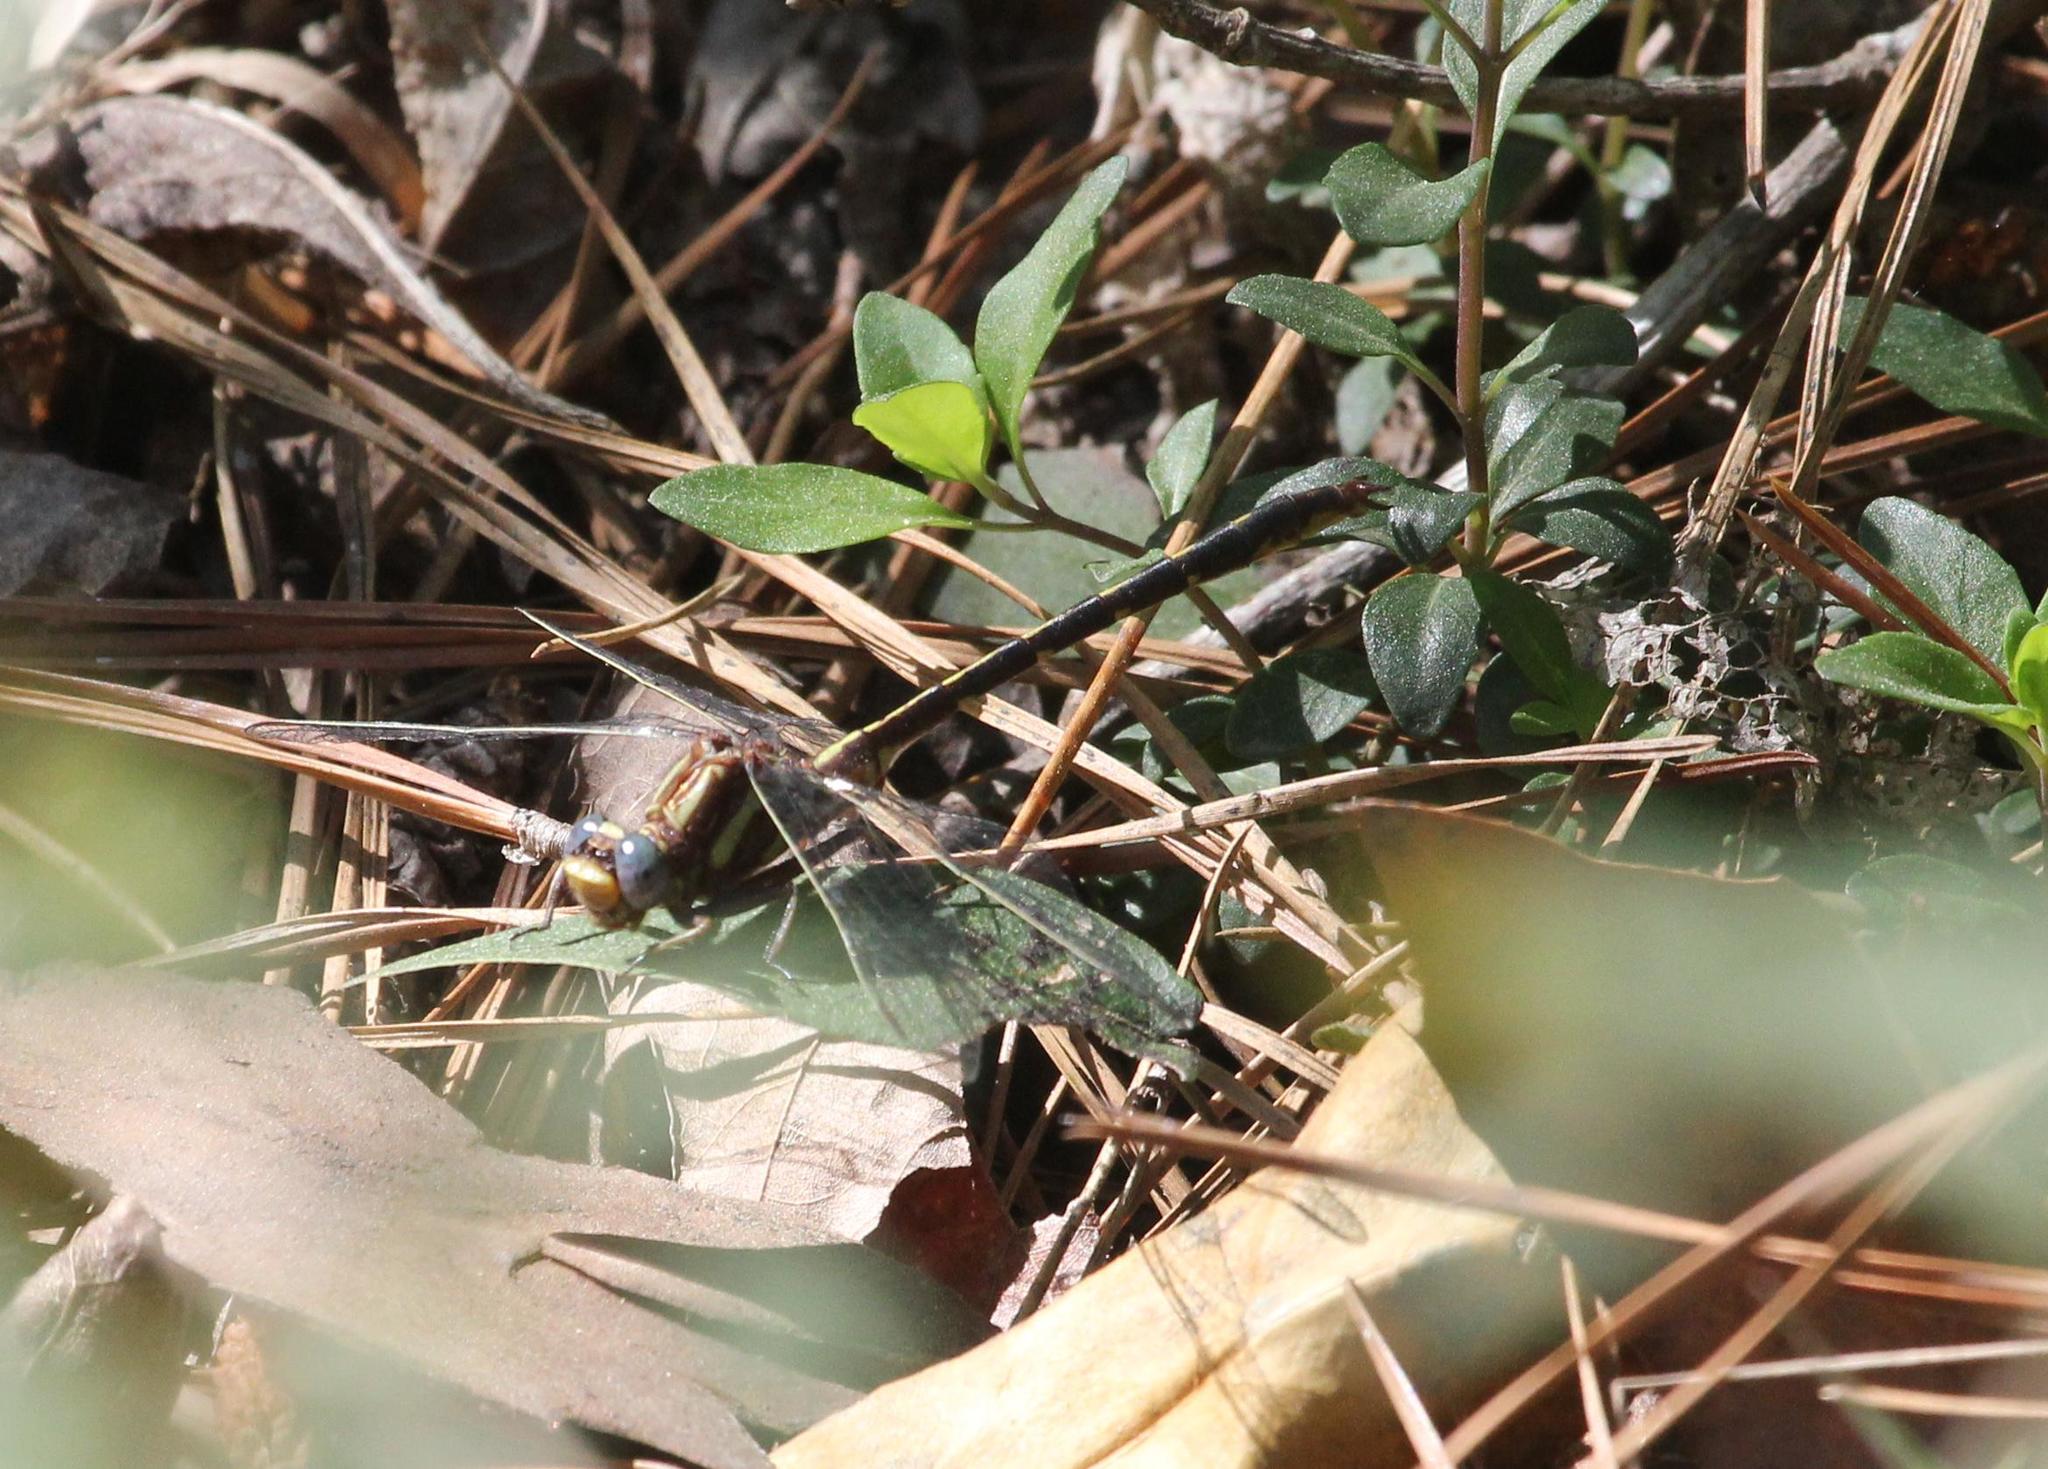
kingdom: Animalia
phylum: Arthropoda
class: Insecta
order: Odonata
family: Gomphidae
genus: Phanogomphus
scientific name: Phanogomphus lividus
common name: Ashy clubtail
